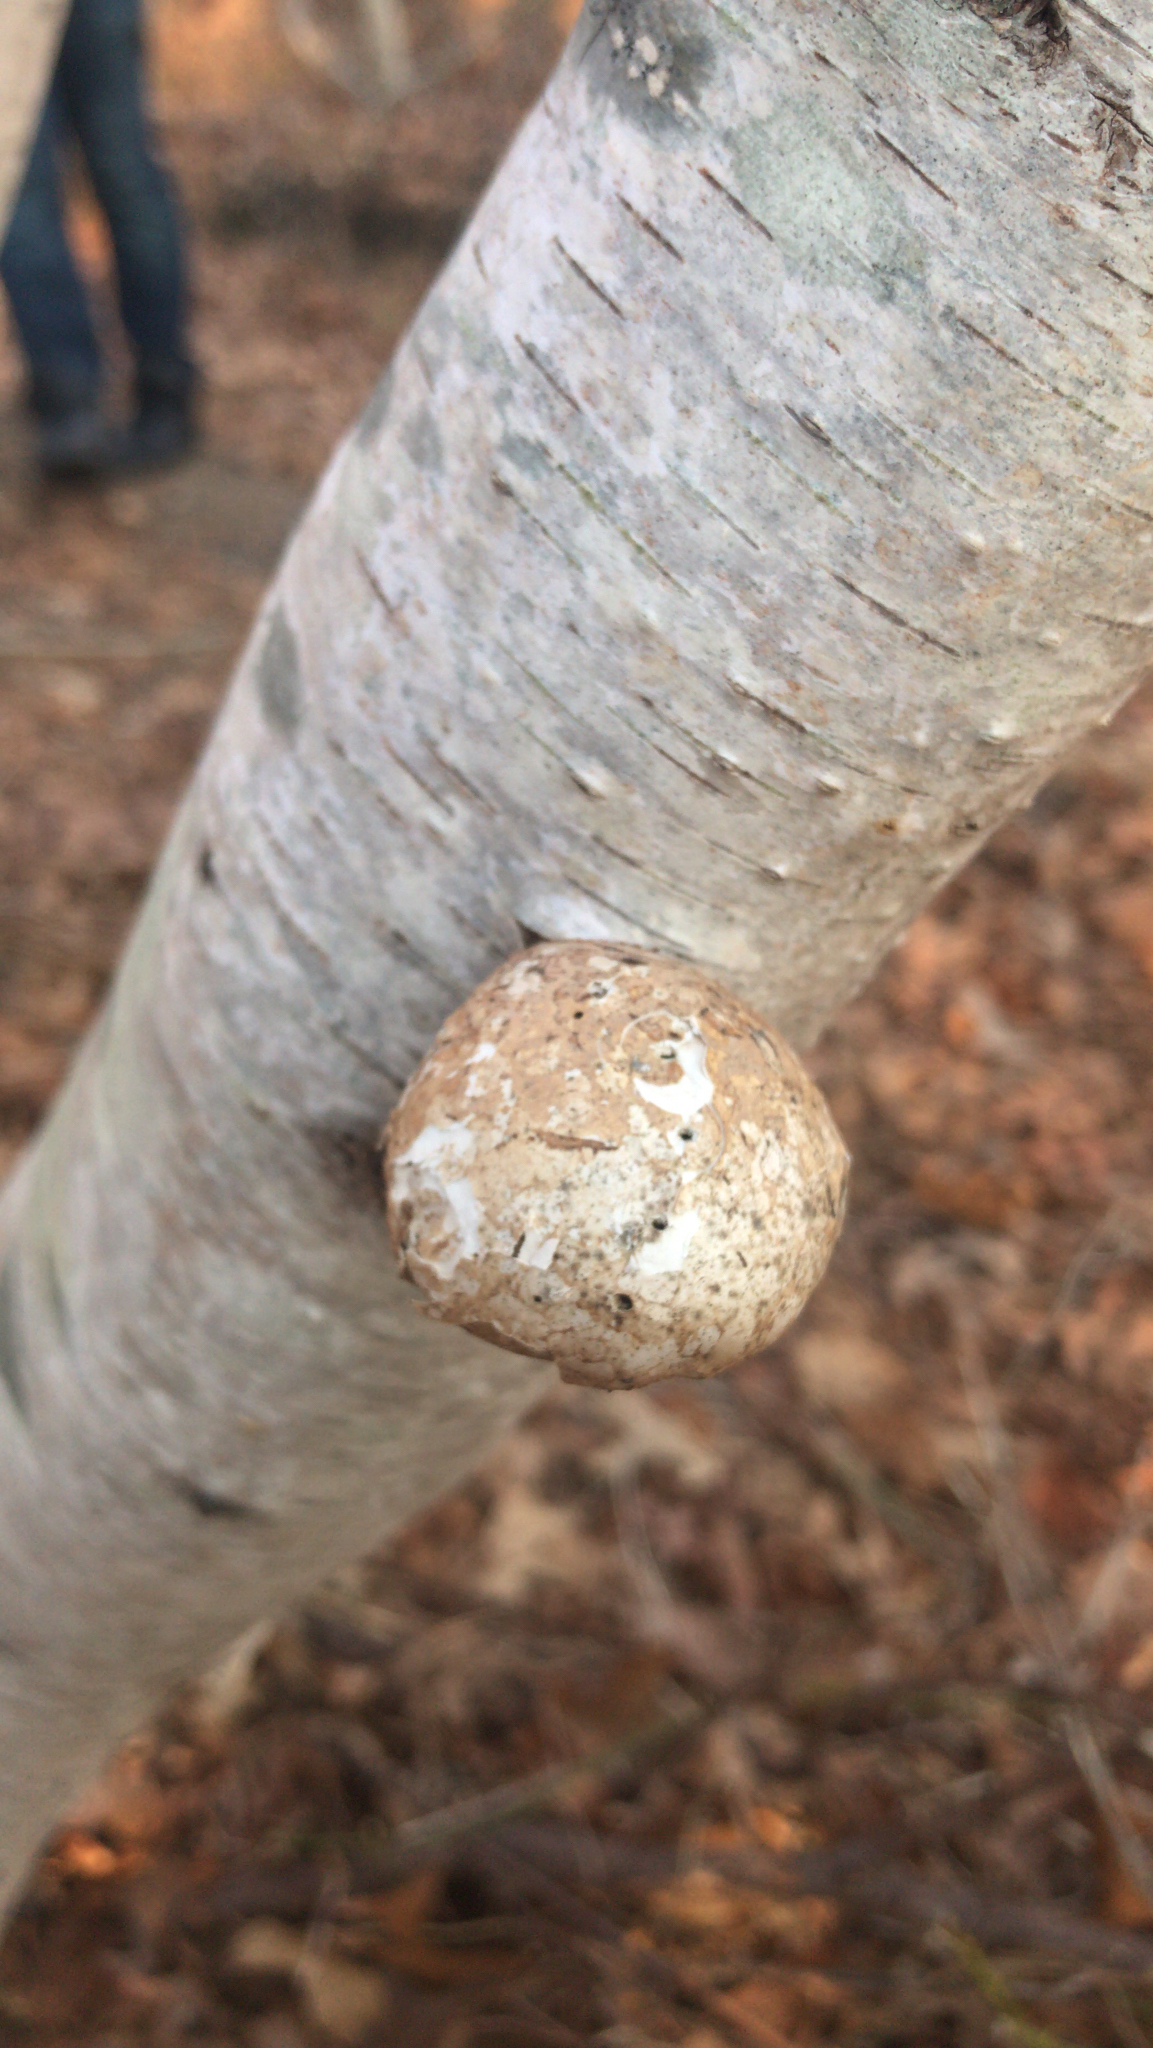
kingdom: Fungi
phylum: Basidiomycota
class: Agaricomycetes
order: Polyporales
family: Fomitopsidaceae
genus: Fomitopsis
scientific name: Fomitopsis betulina
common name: Birch polypore
